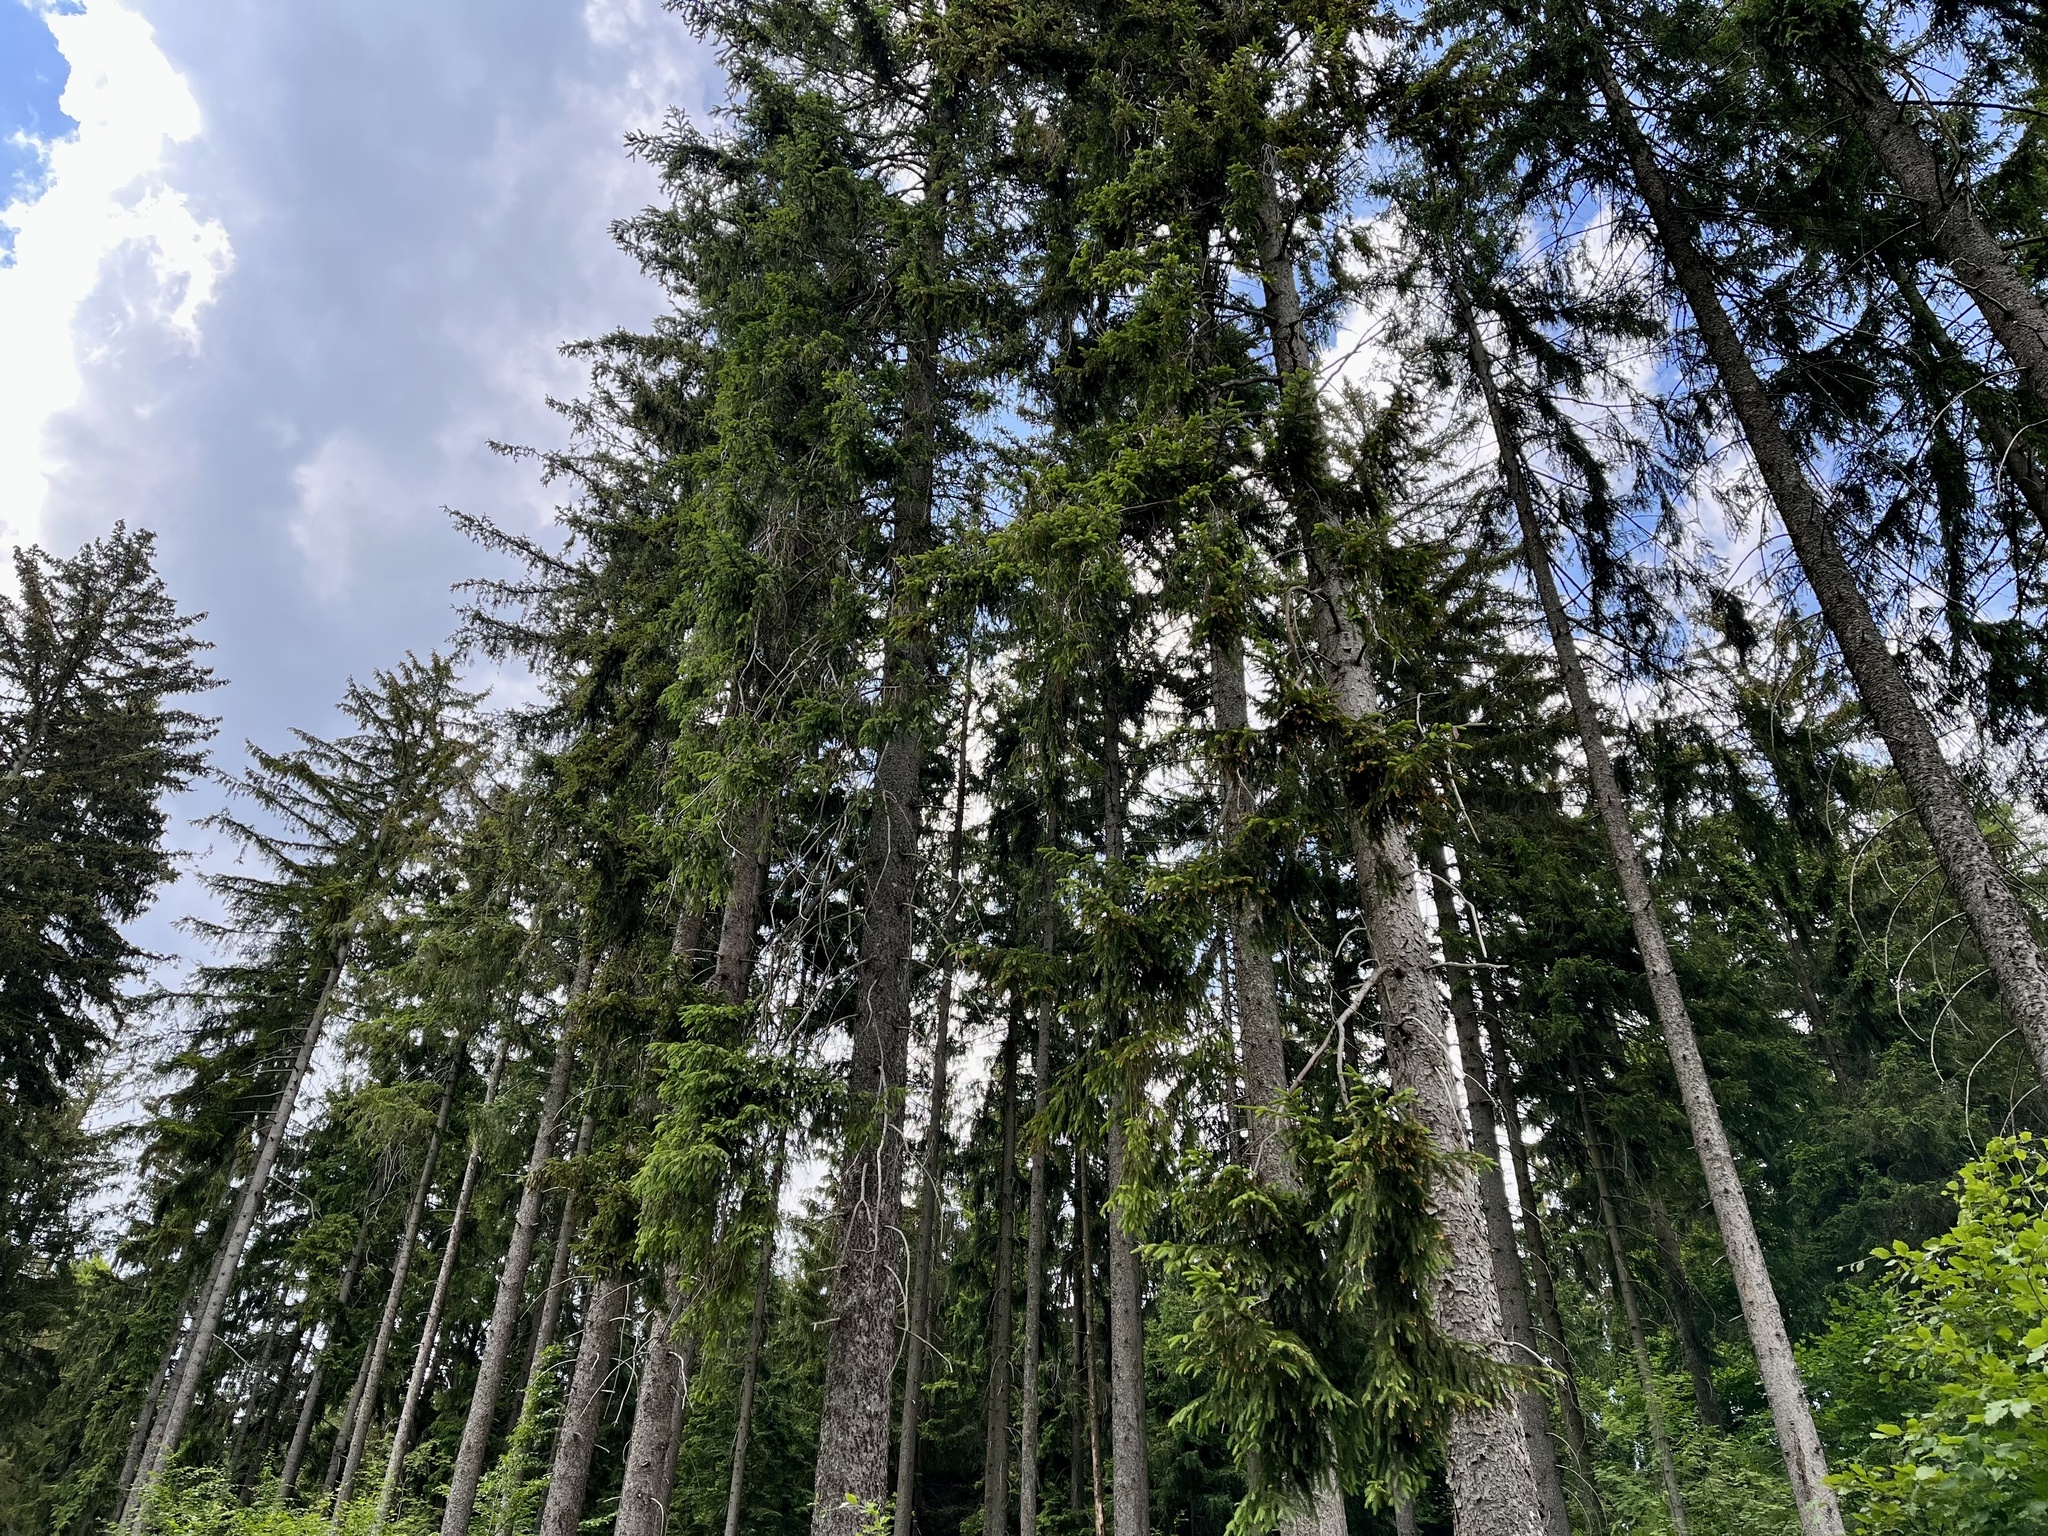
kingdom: Plantae
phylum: Tracheophyta
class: Pinopsida
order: Pinales
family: Pinaceae
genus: Picea
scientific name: Picea abies
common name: Norway spruce
